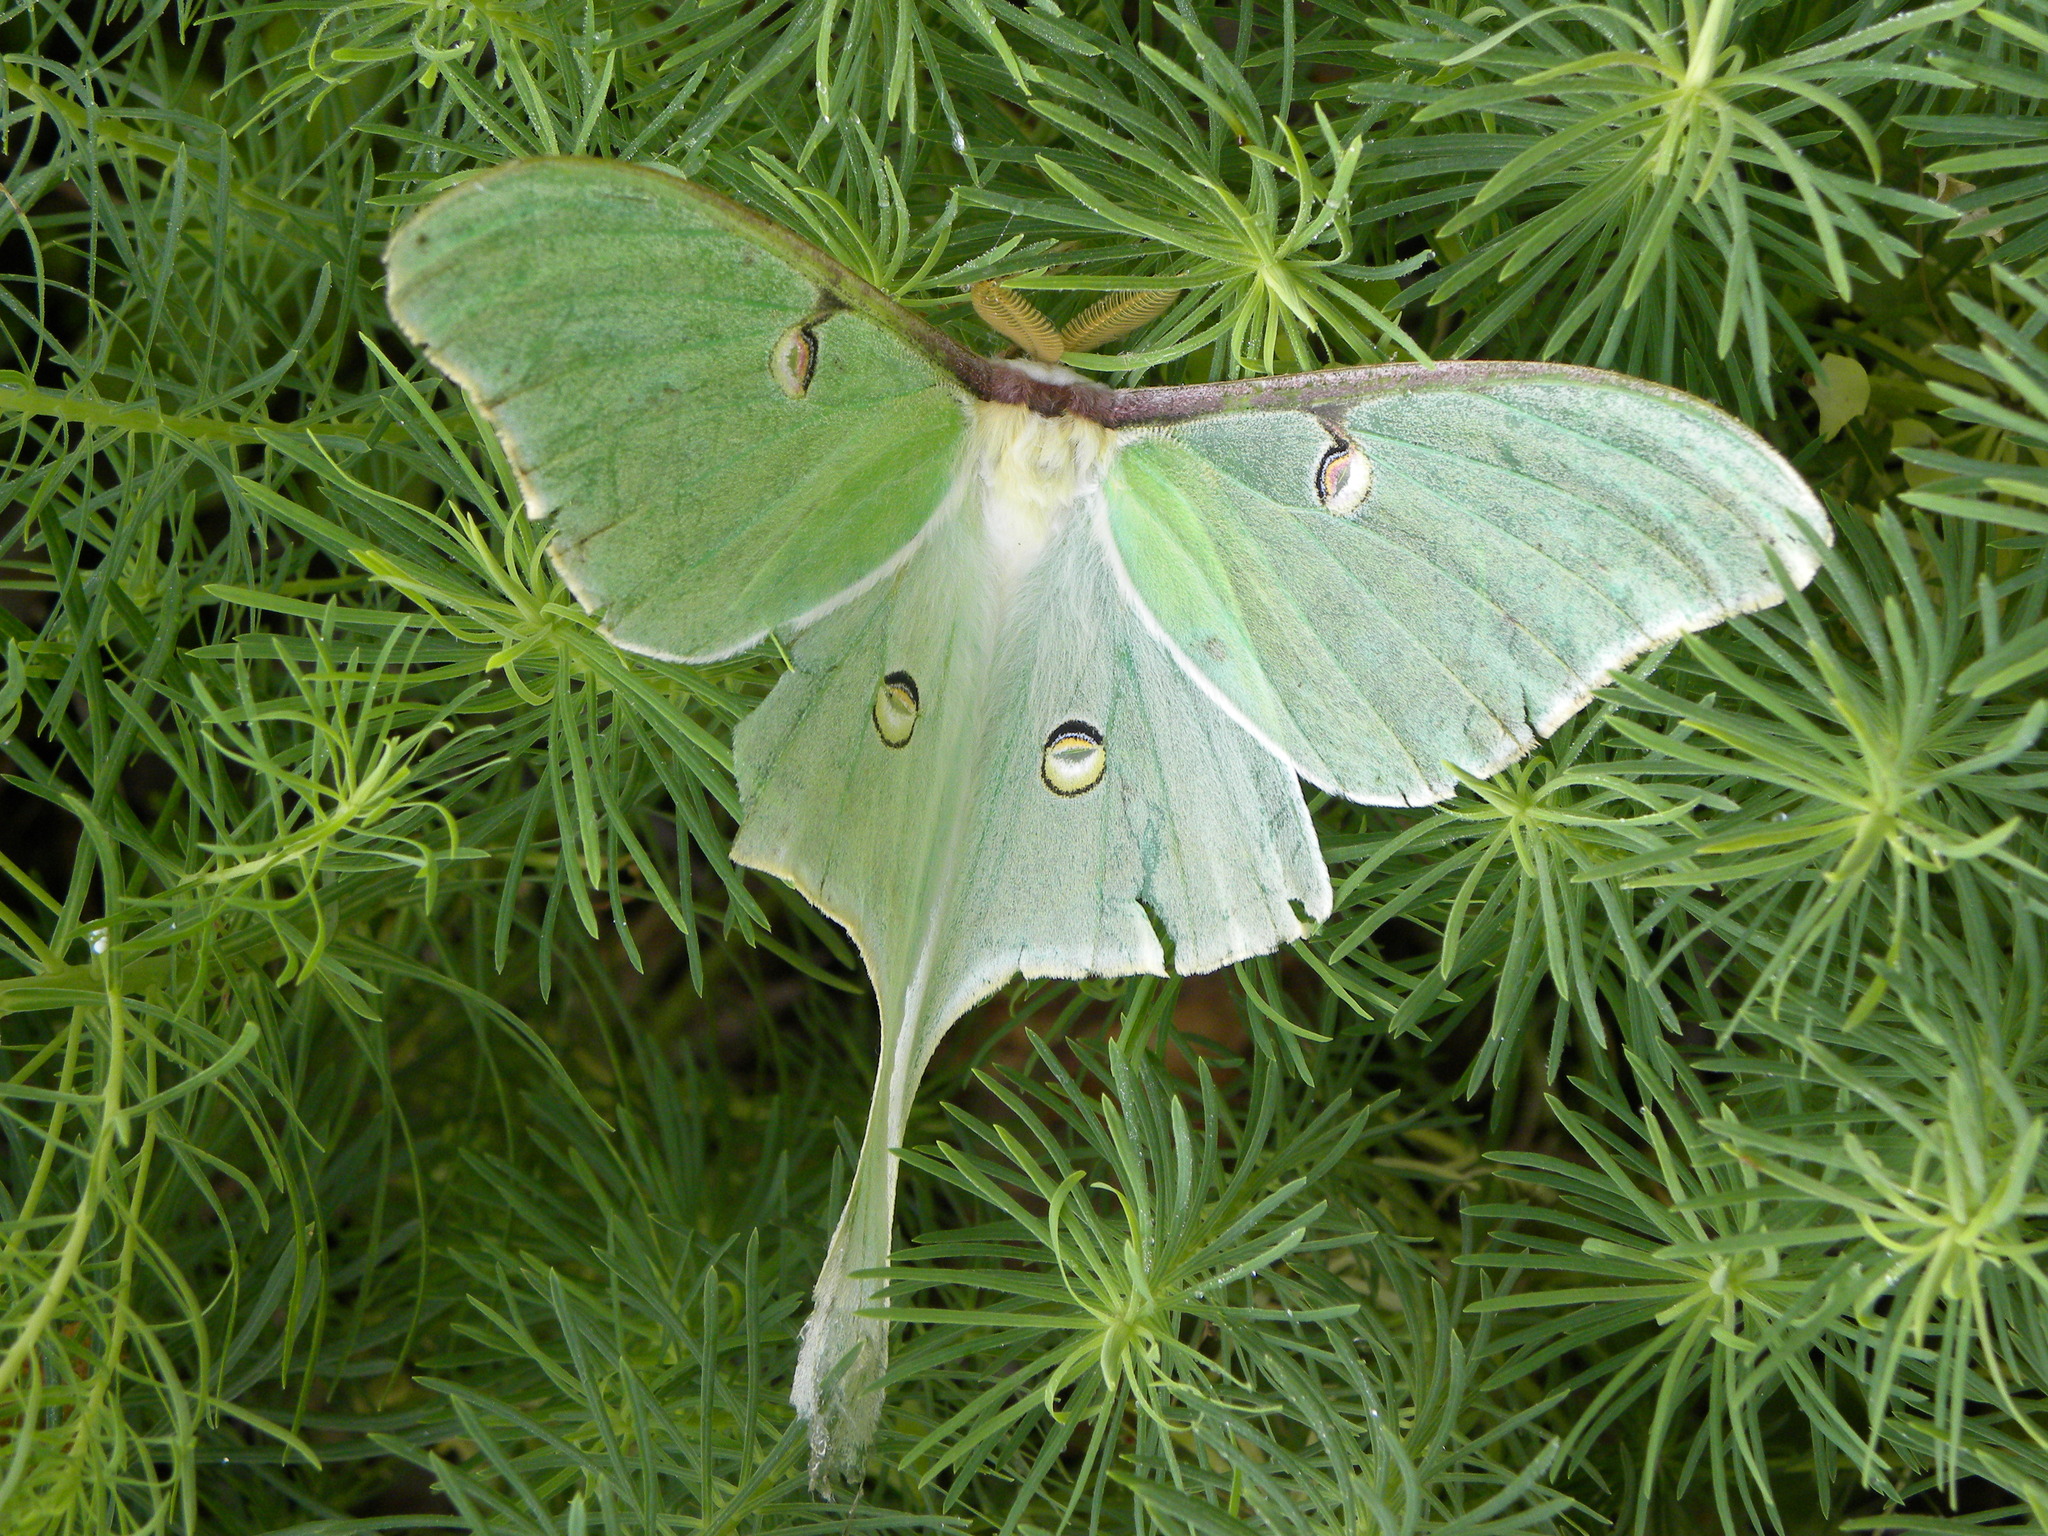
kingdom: Animalia
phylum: Arthropoda
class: Insecta
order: Lepidoptera
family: Saturniidae
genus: Actias
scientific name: Actias luna
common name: Luna moth
